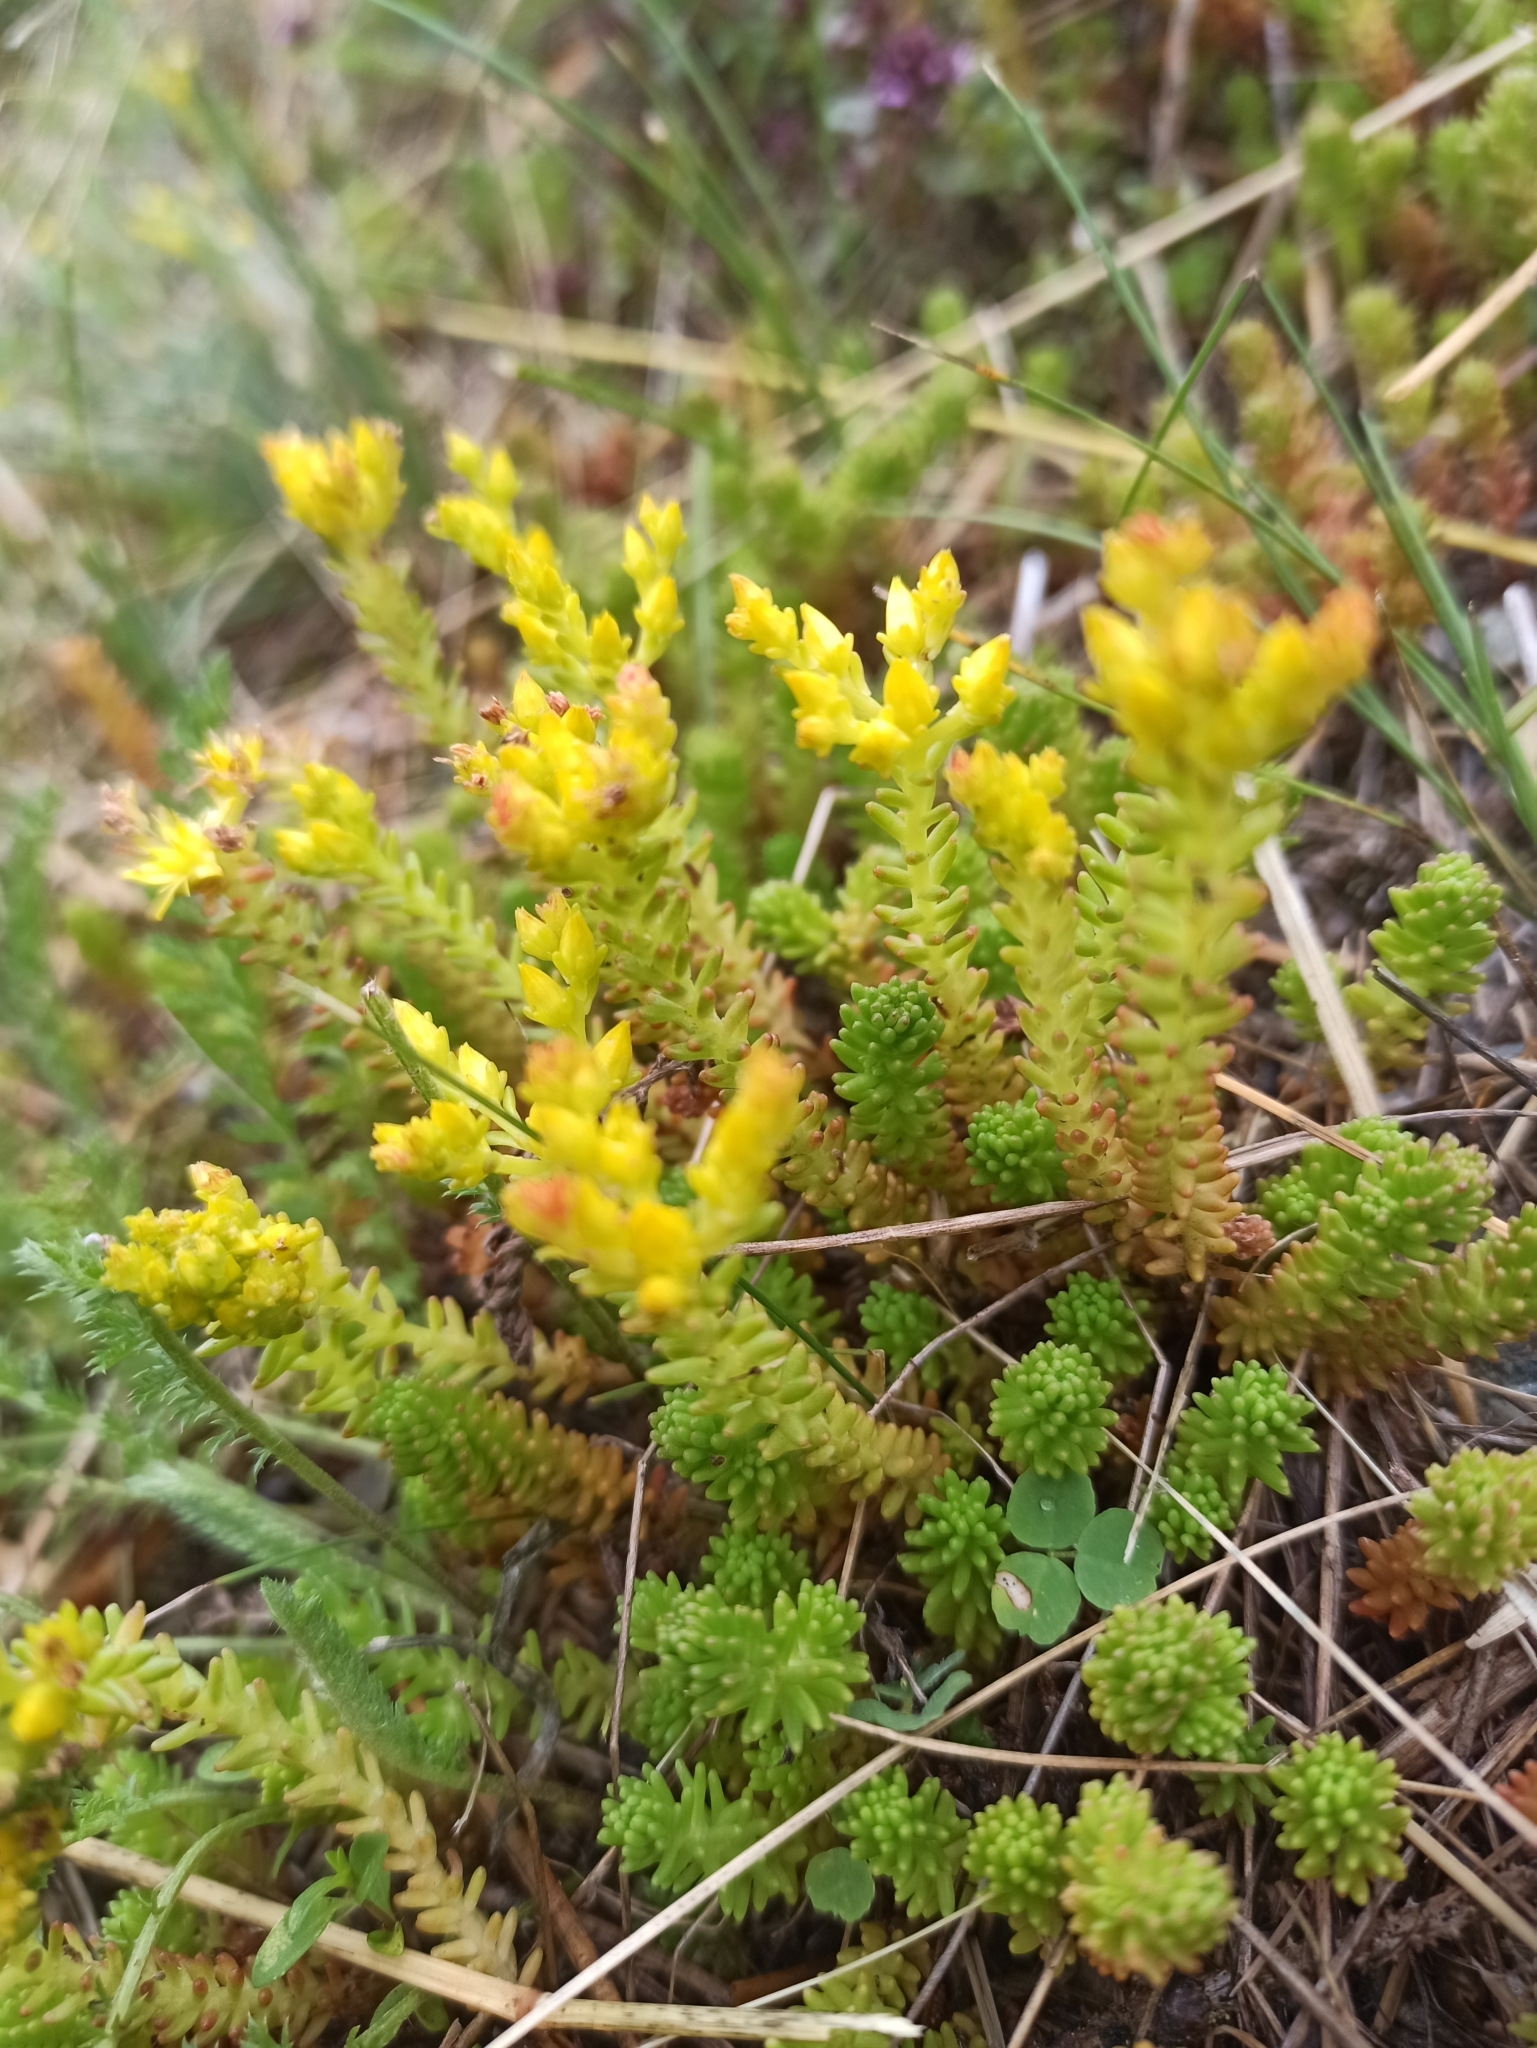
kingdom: Plantae
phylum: Tracheophyta
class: Magnoliopsida
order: Saxifragales
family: Crassulaceae
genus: Sedum
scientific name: Sedum sexangulare
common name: Tasteless stonecrop
